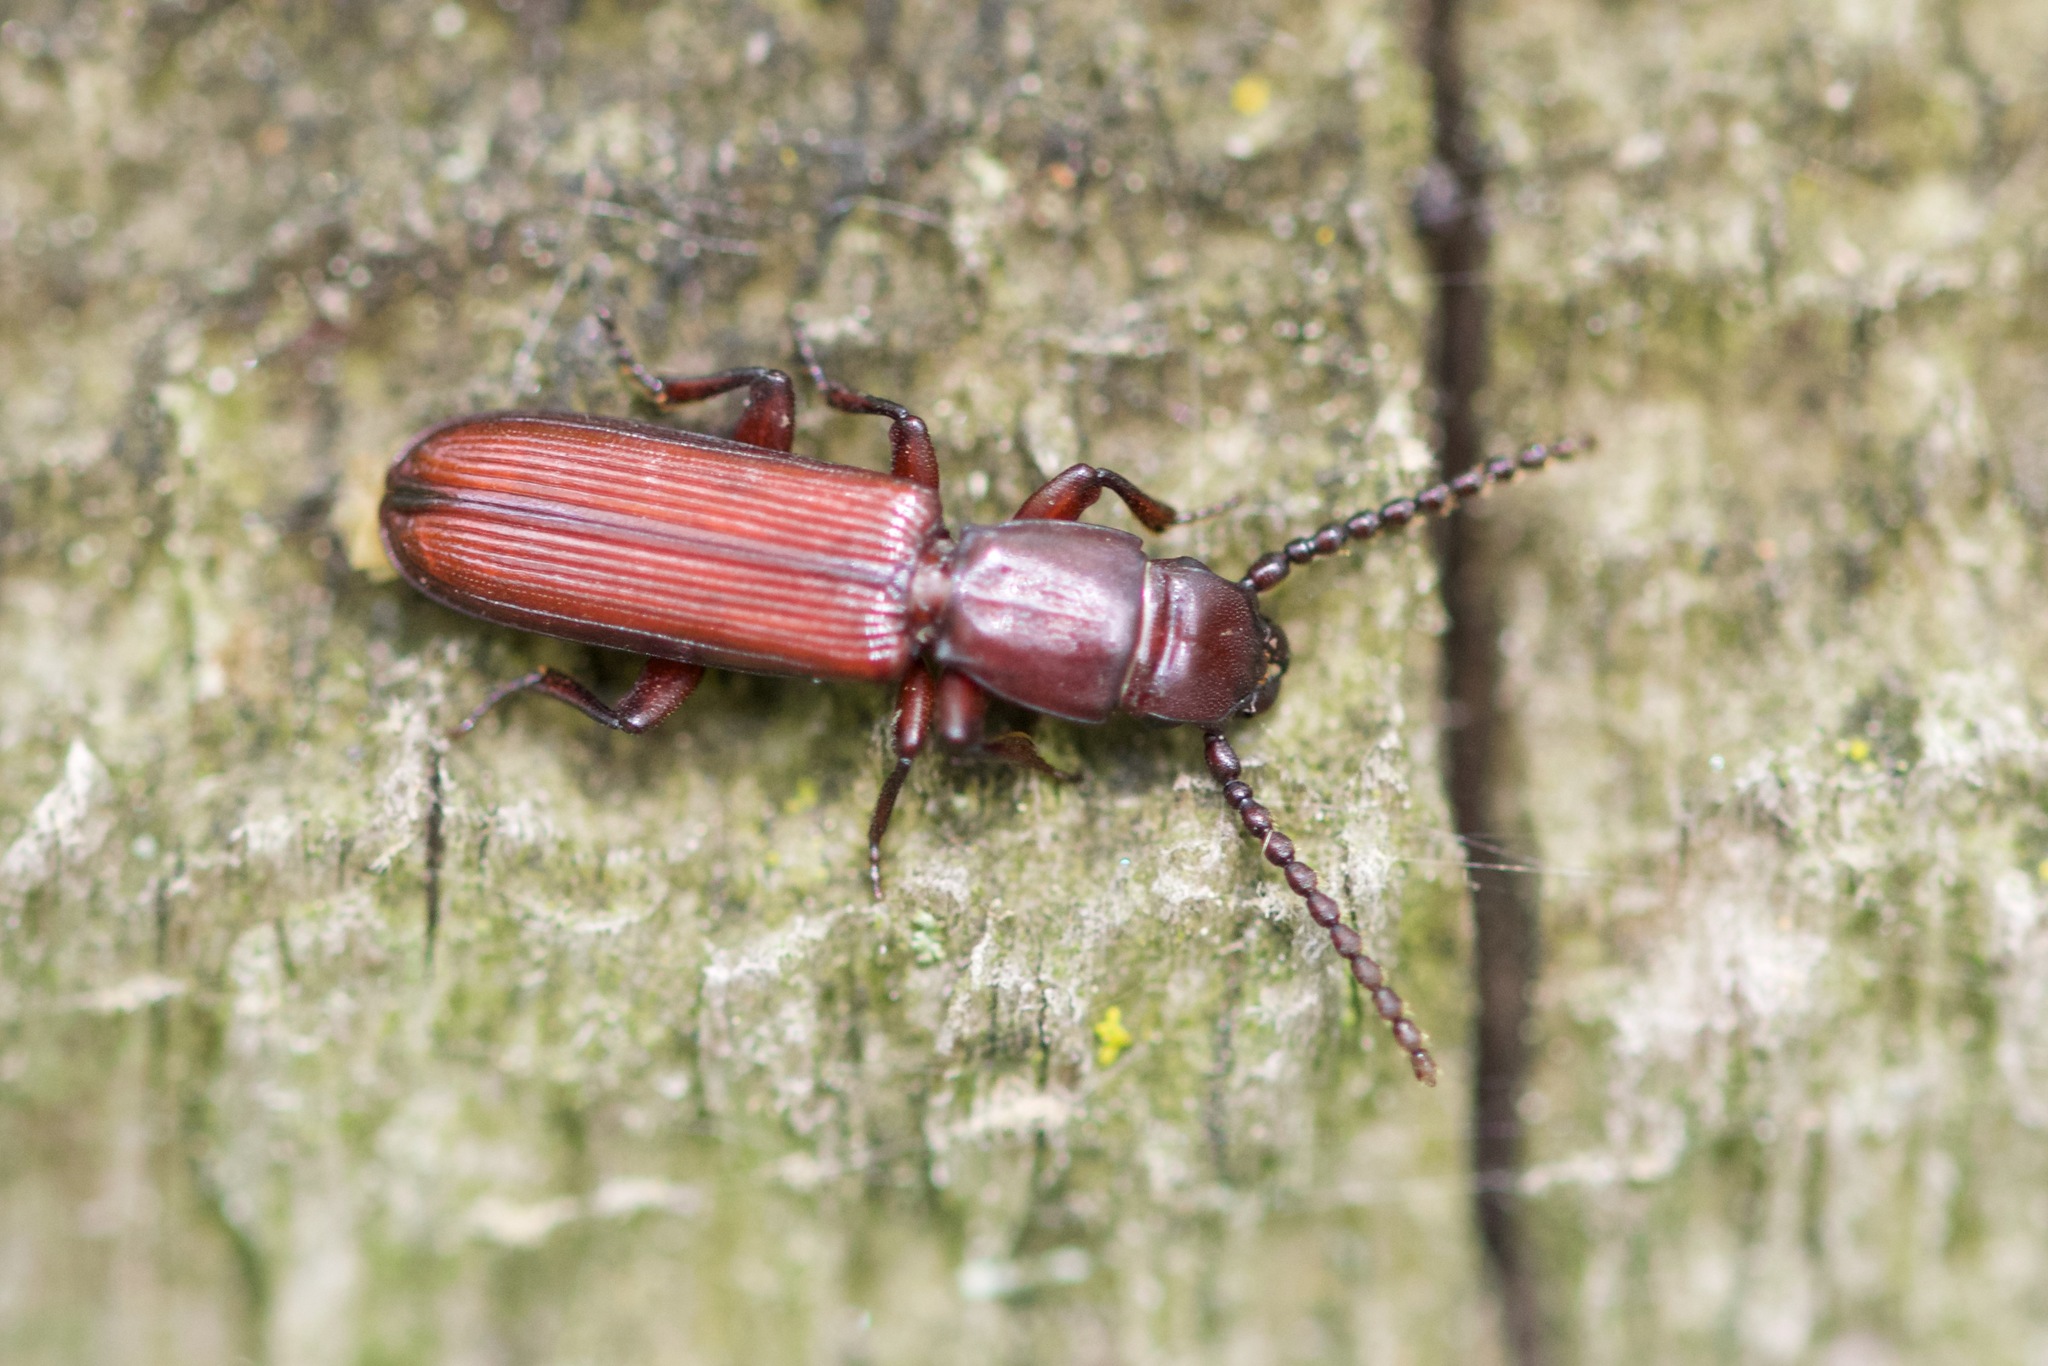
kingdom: Animalia
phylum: Arthropoda
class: Insecta
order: Coleoptera
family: Passandridae
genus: Catogenus
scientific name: Catogenus rufus
